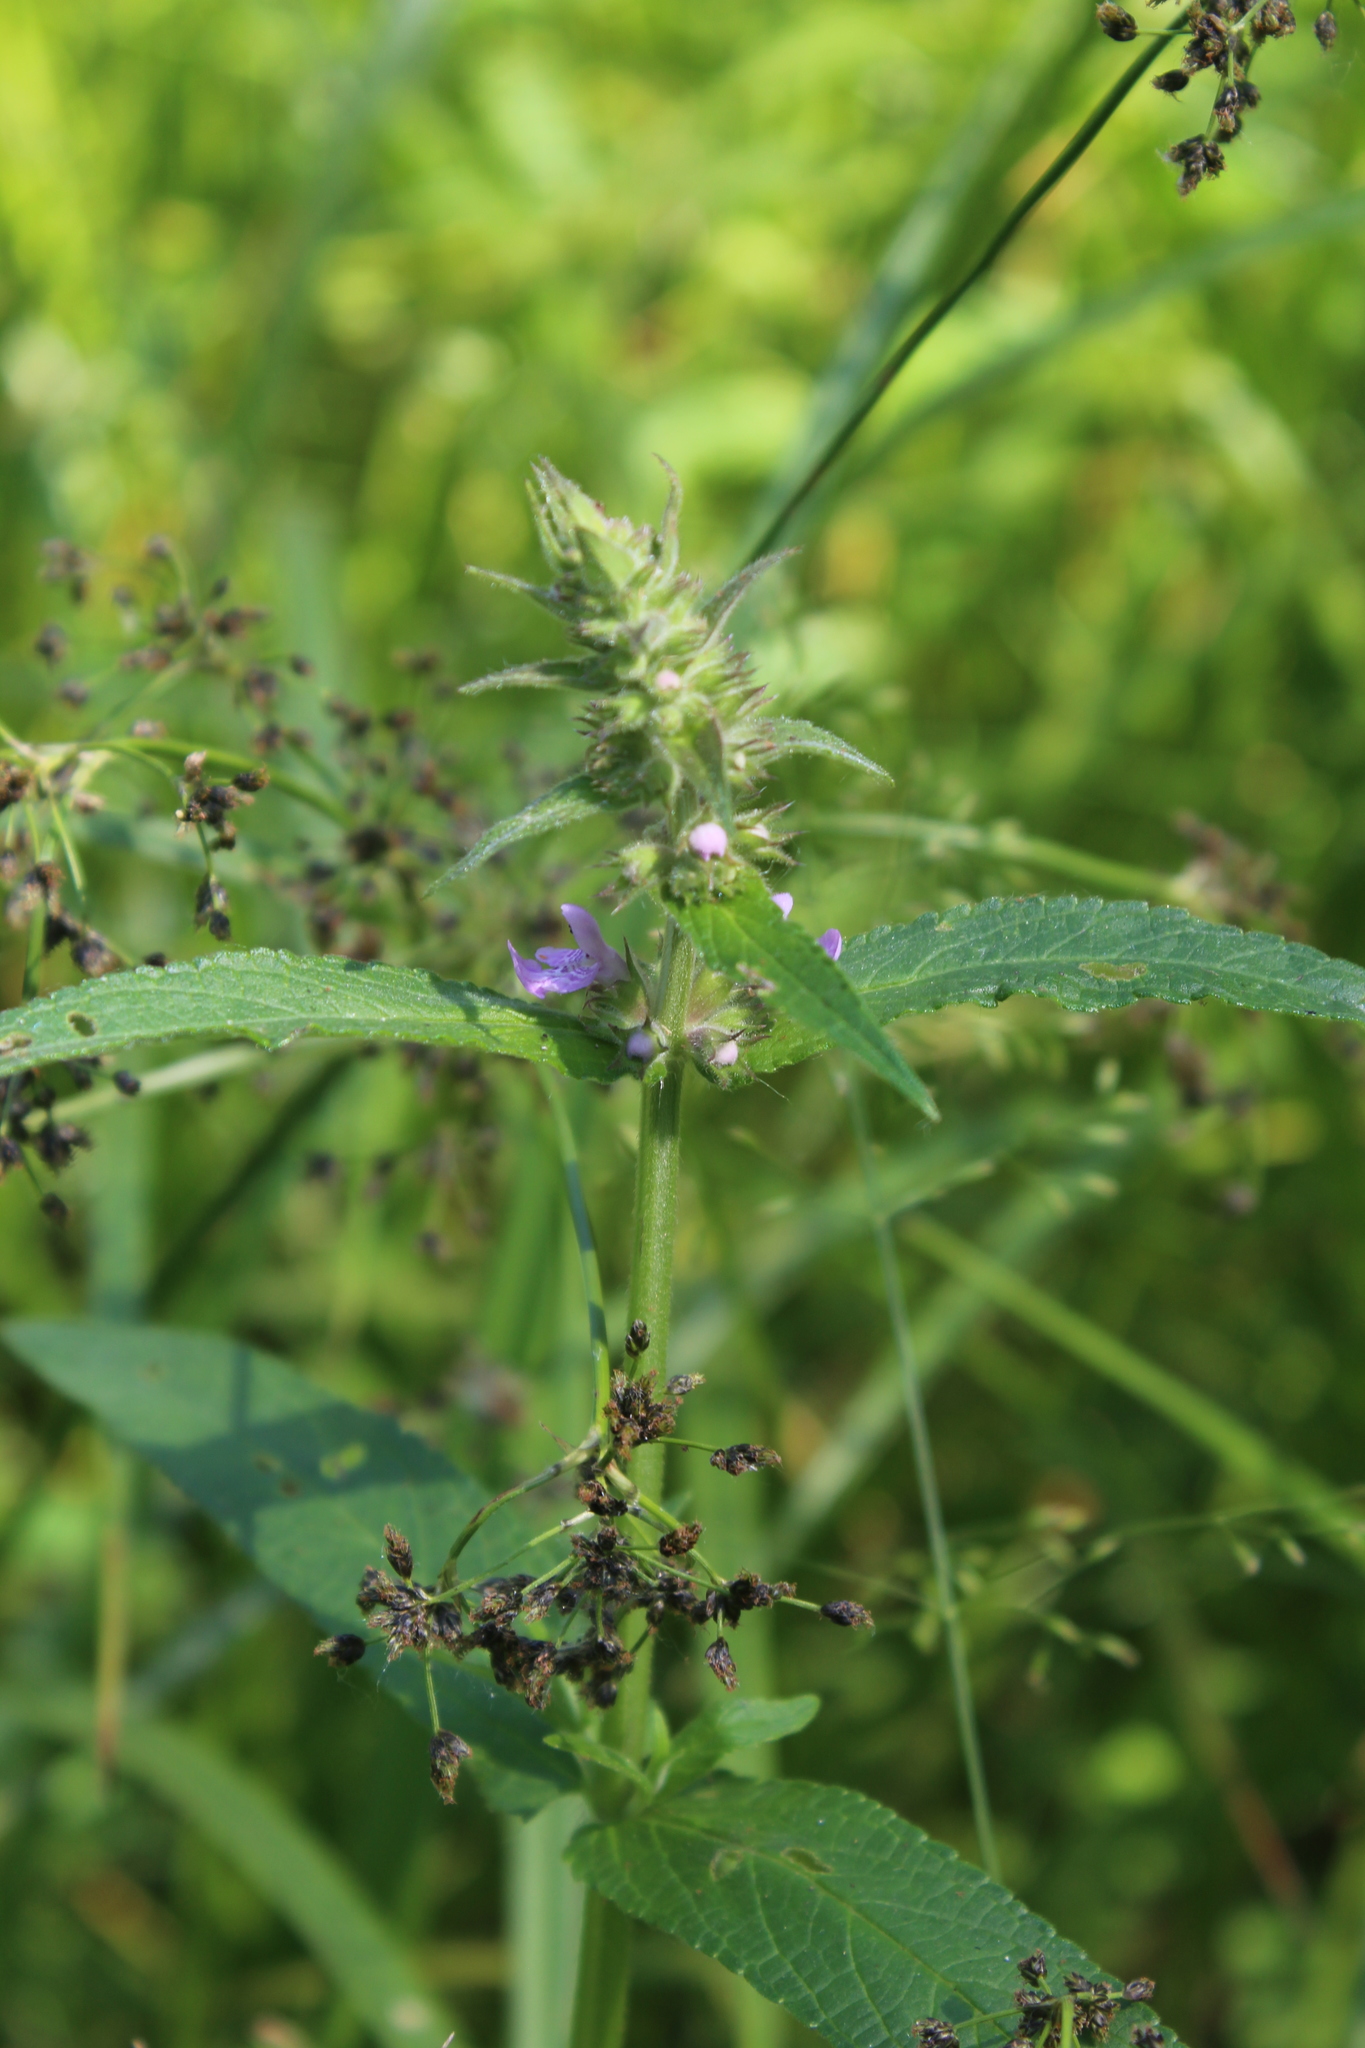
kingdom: Plantae
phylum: Tracheophyta
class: Magnoliopsida
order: Lamiales
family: Lamiaceae
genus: Stachys
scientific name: Stachys palustris
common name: Marsh woundwort
